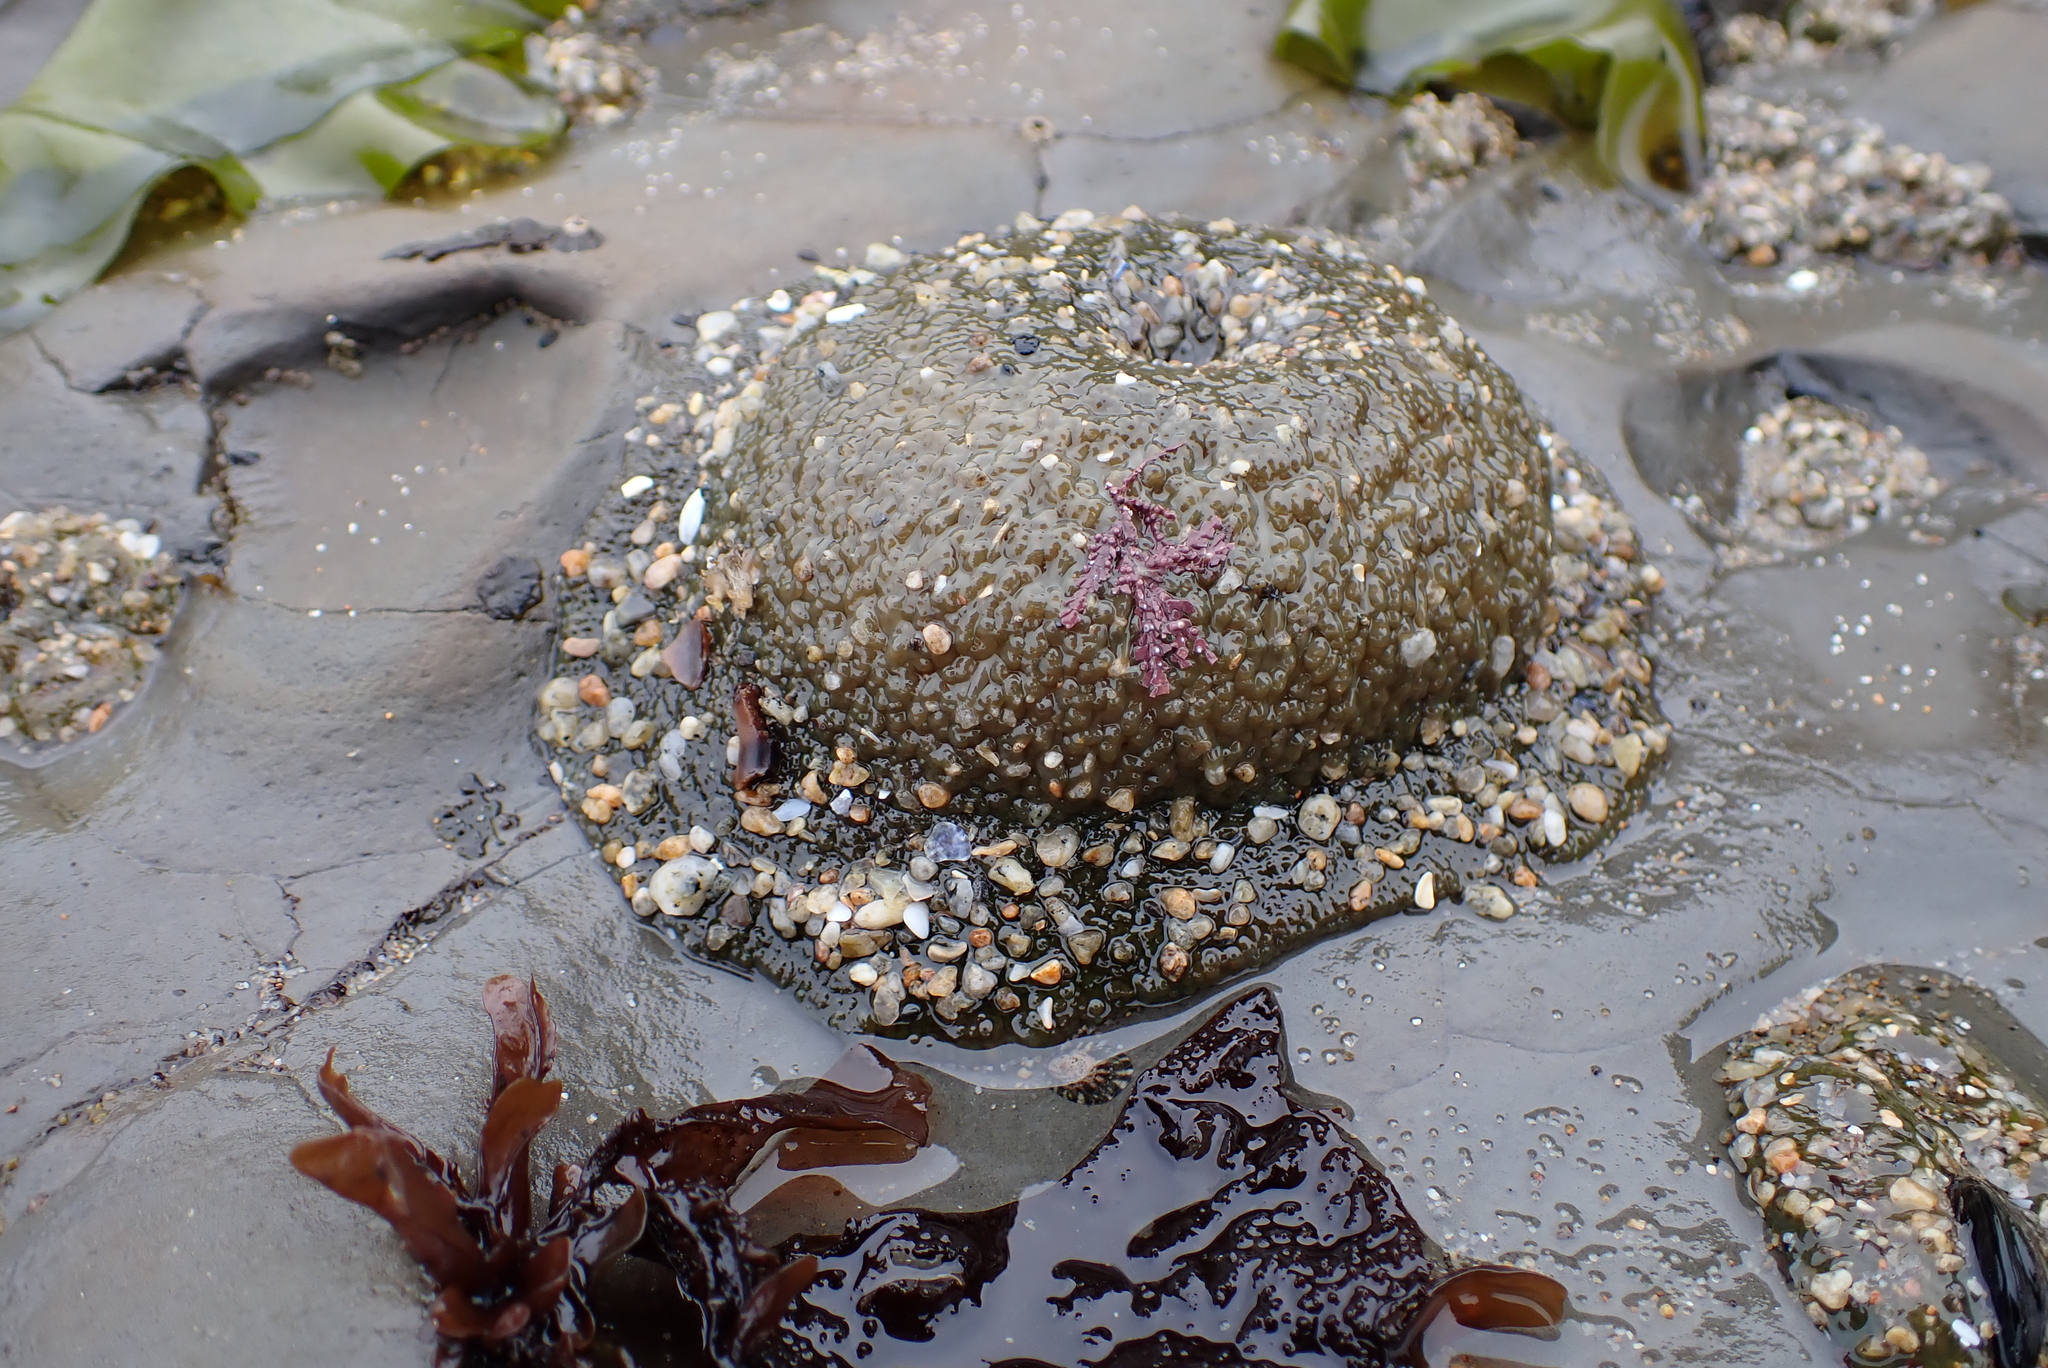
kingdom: Animalia
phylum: Cnidaria
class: Anthozoa
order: Actiniaria
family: Actiniidae
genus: Anthopleura
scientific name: Anthopleura xanthogrammica
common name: Giant green anemone
